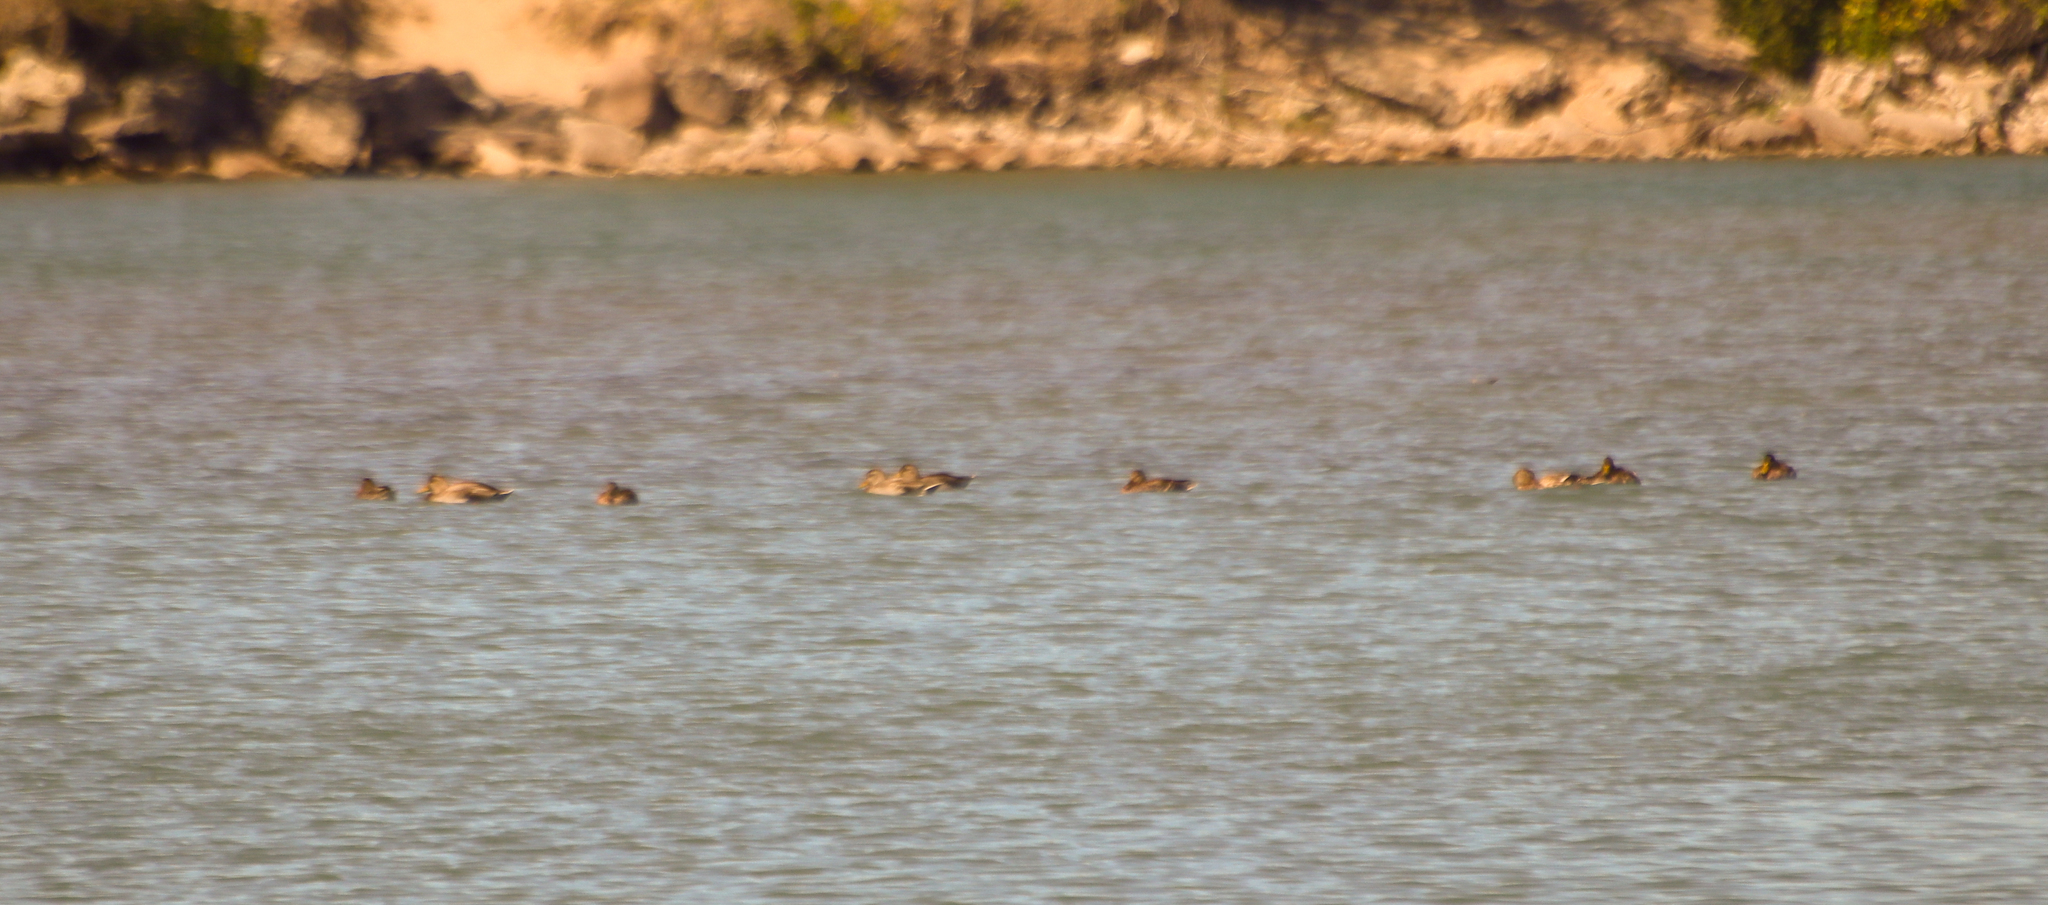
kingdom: Animalia
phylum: Chordata
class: Aves
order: Anseriformes
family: Anatidae
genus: Anas
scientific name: Anas platyrhynchos
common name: Mallard
